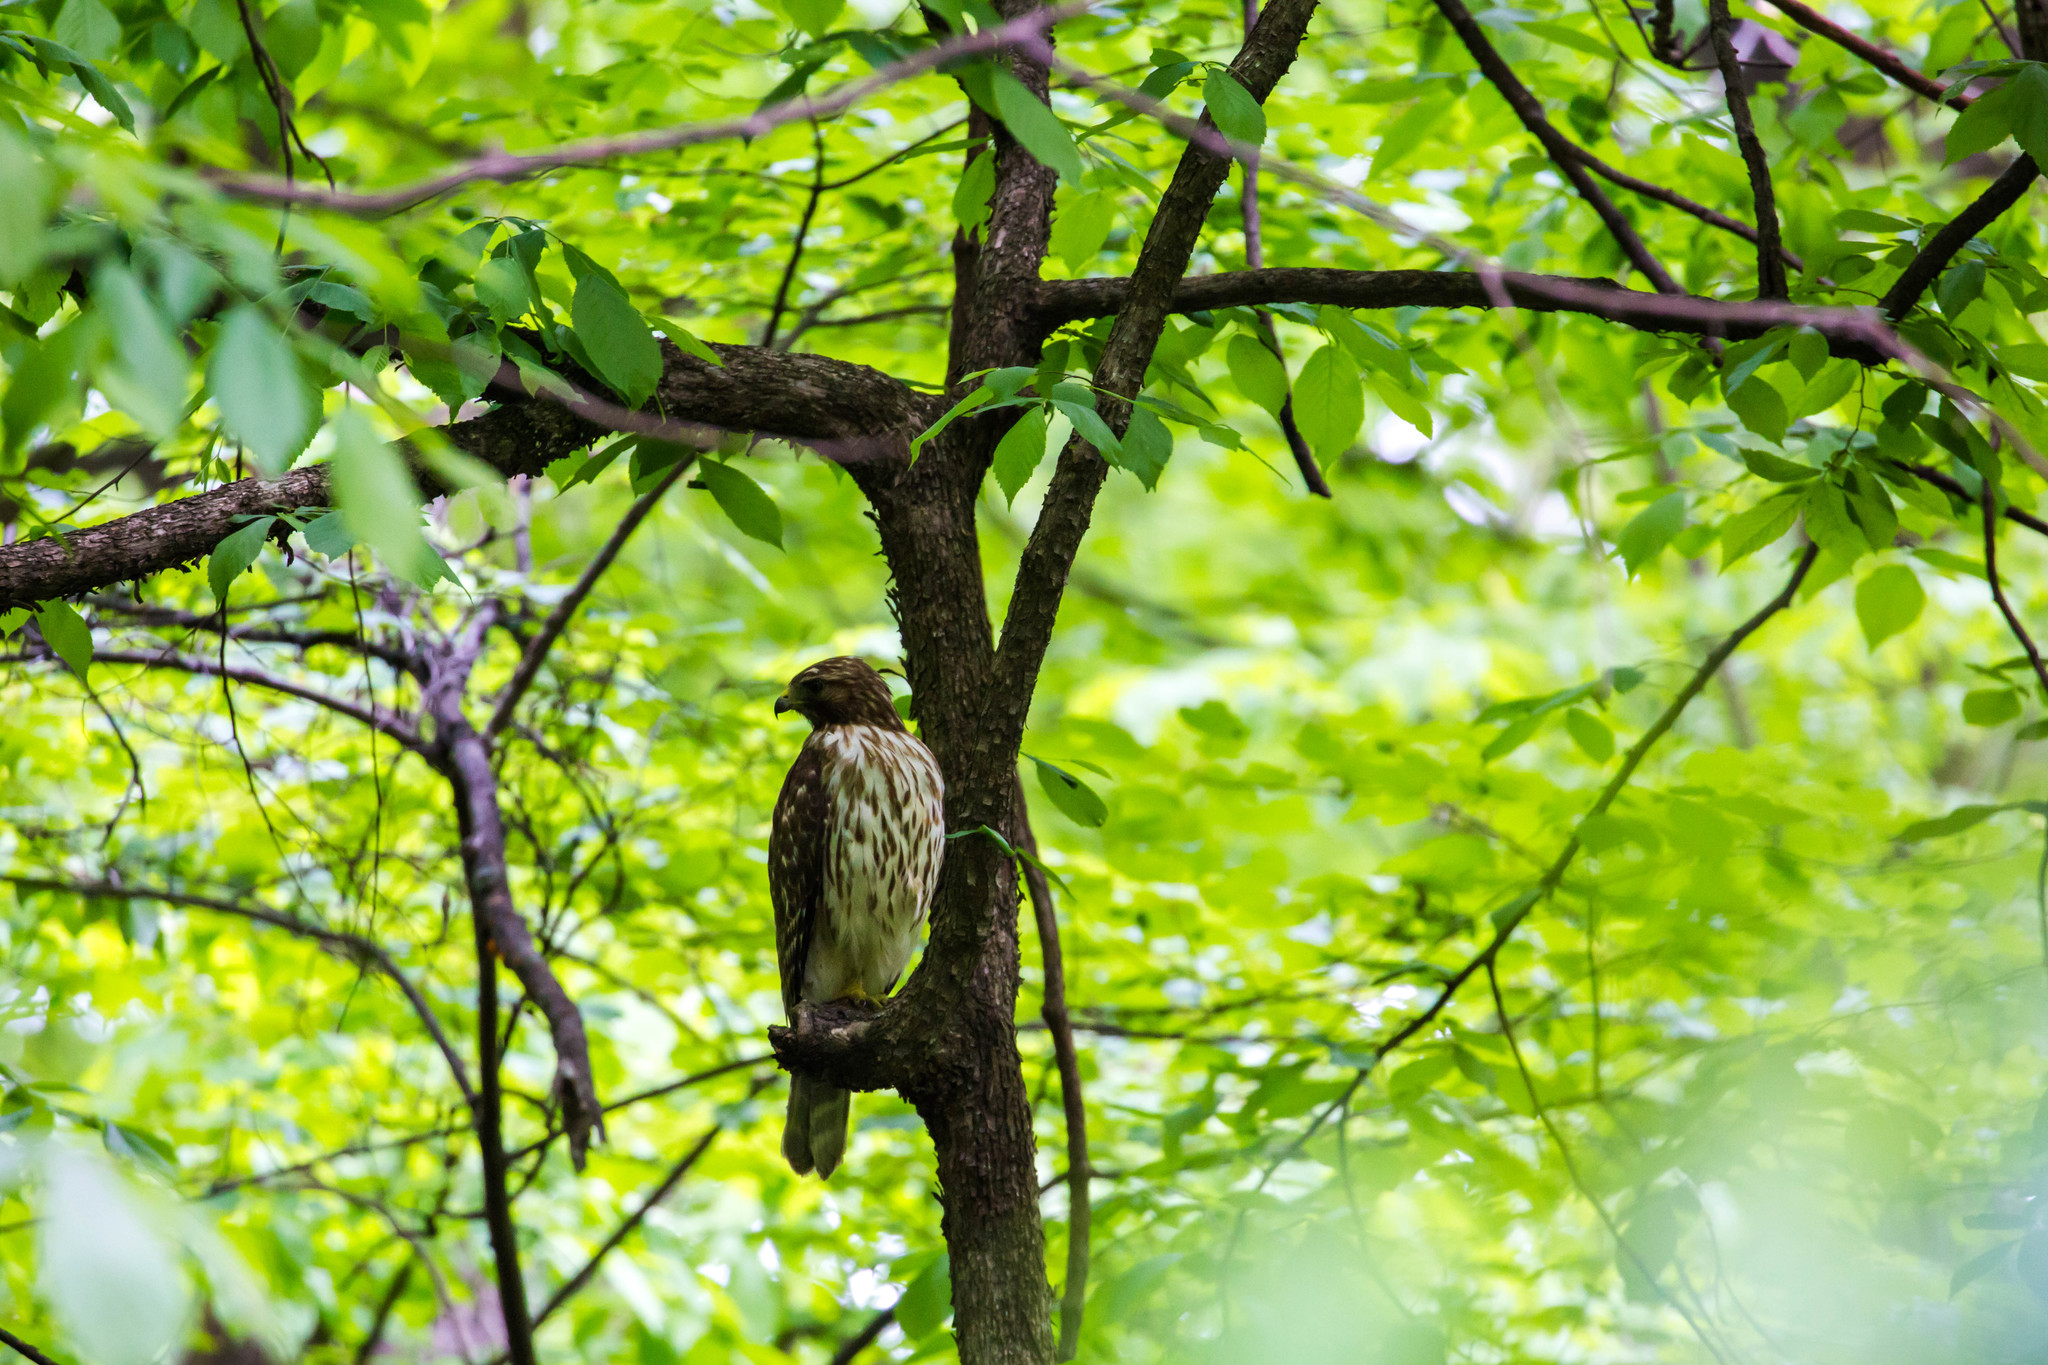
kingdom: Animalia
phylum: Chordata
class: Aves
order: Accipitriformes
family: Accipitridae
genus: Buteo
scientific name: Buteo lineatus
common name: Red-shouldered hawk
